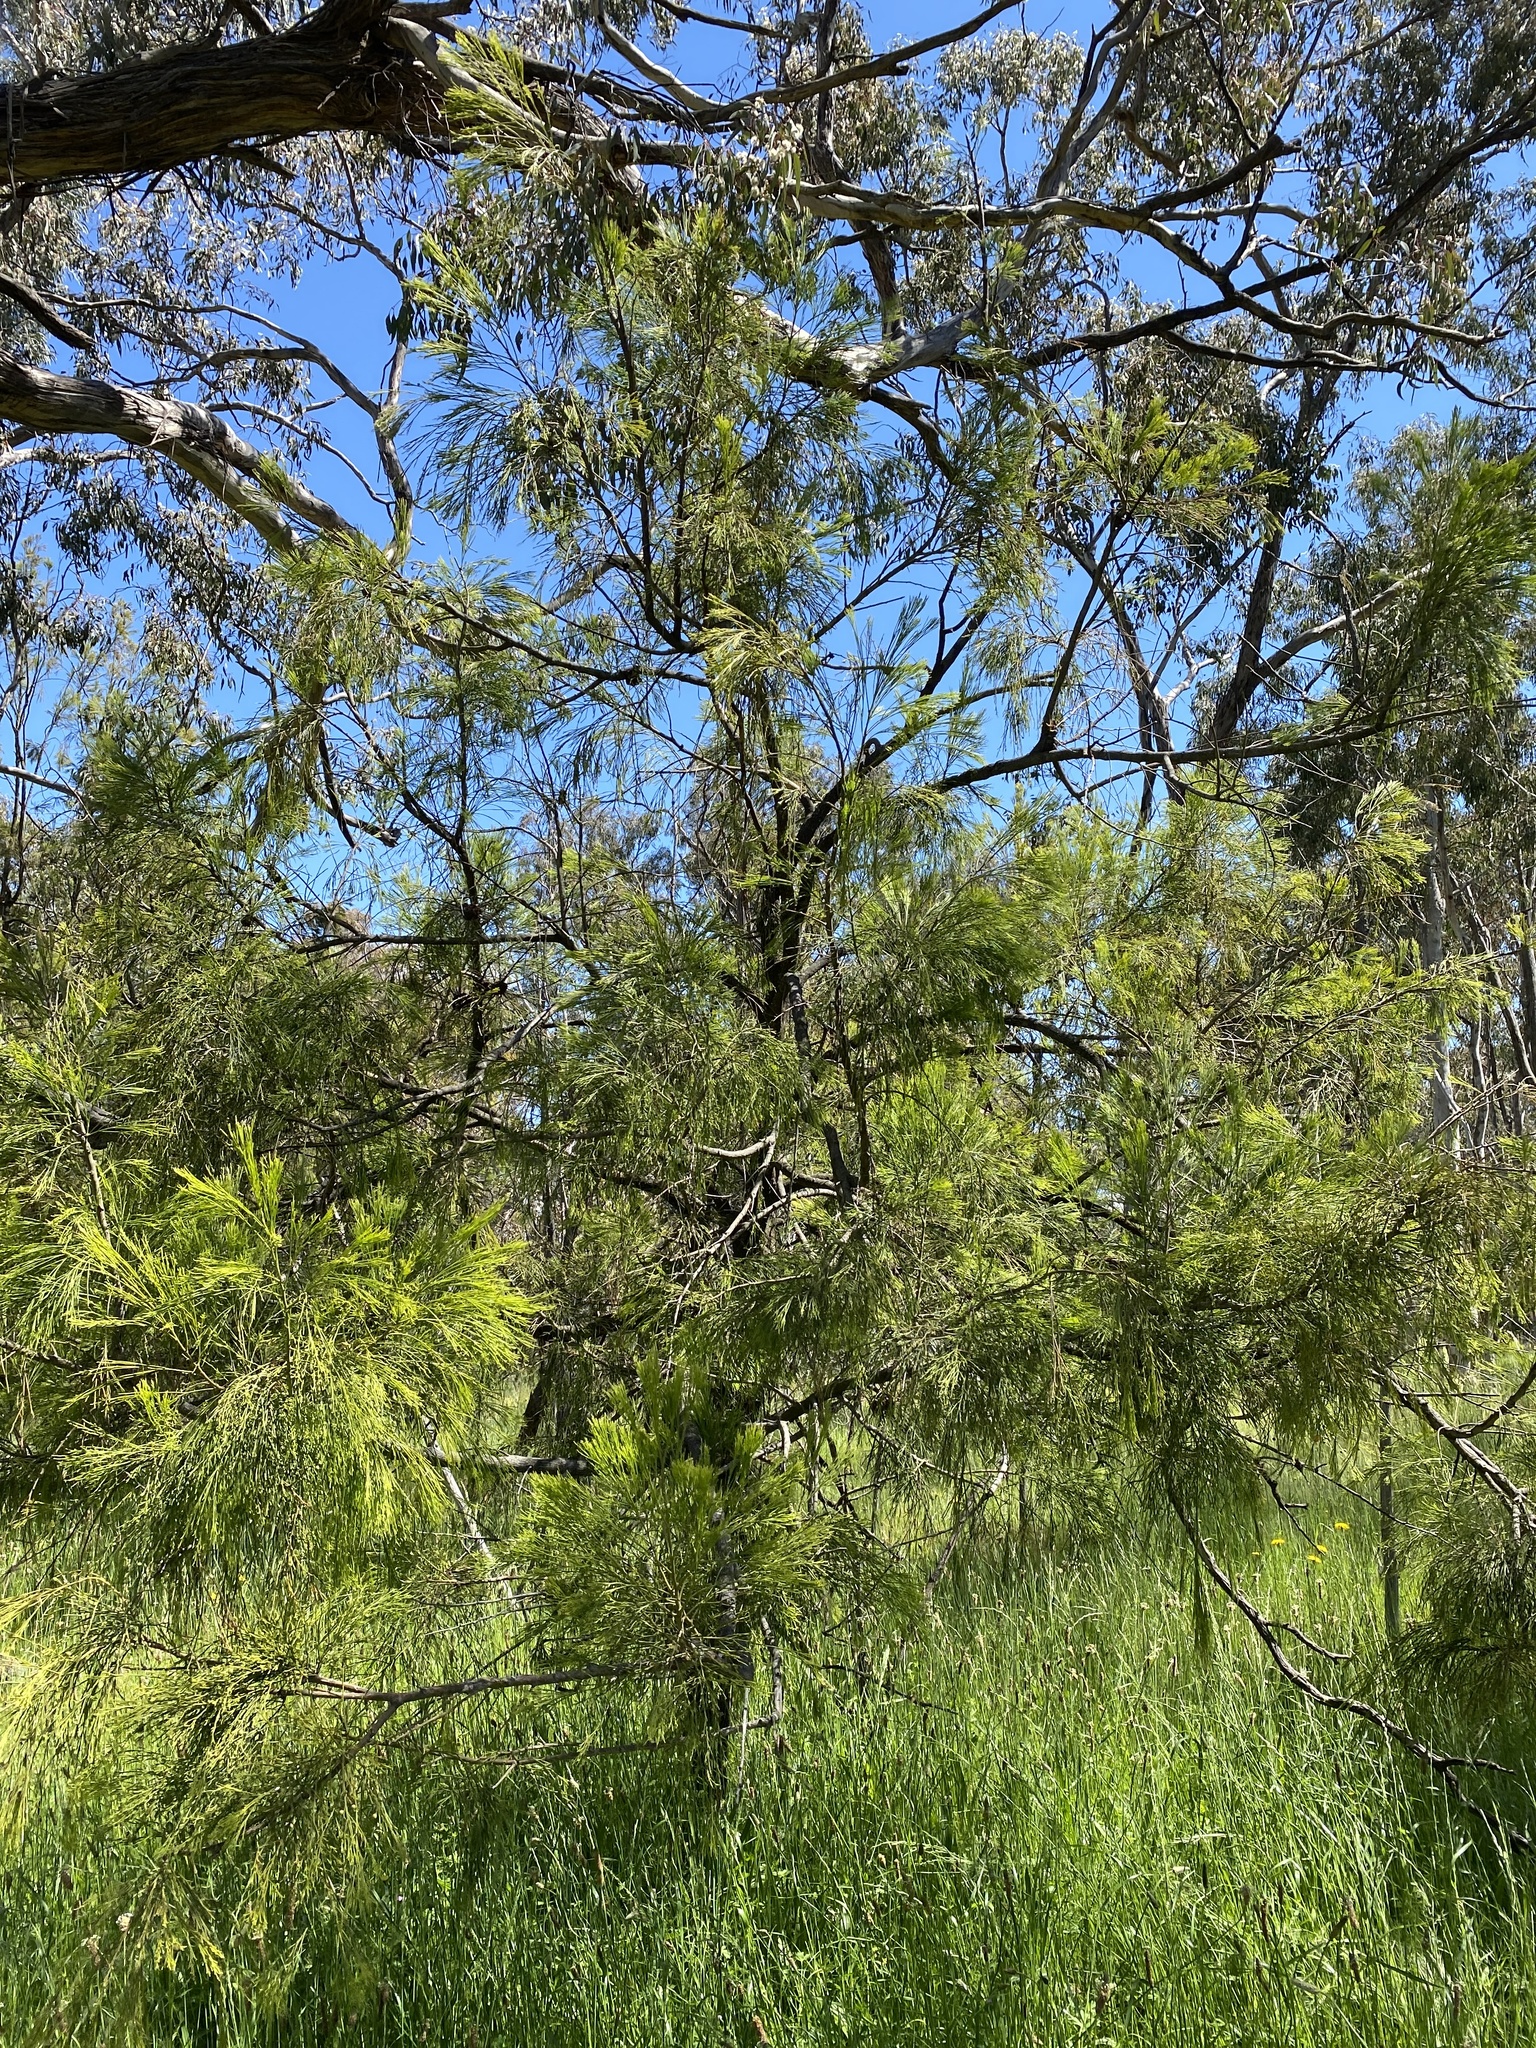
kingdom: Plantae
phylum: Tracheophyta
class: Magnoliopsida
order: Santalales
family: Santalaceae
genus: Exocarpos
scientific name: Exocarpos cupressiformis
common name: Cherry ballart
